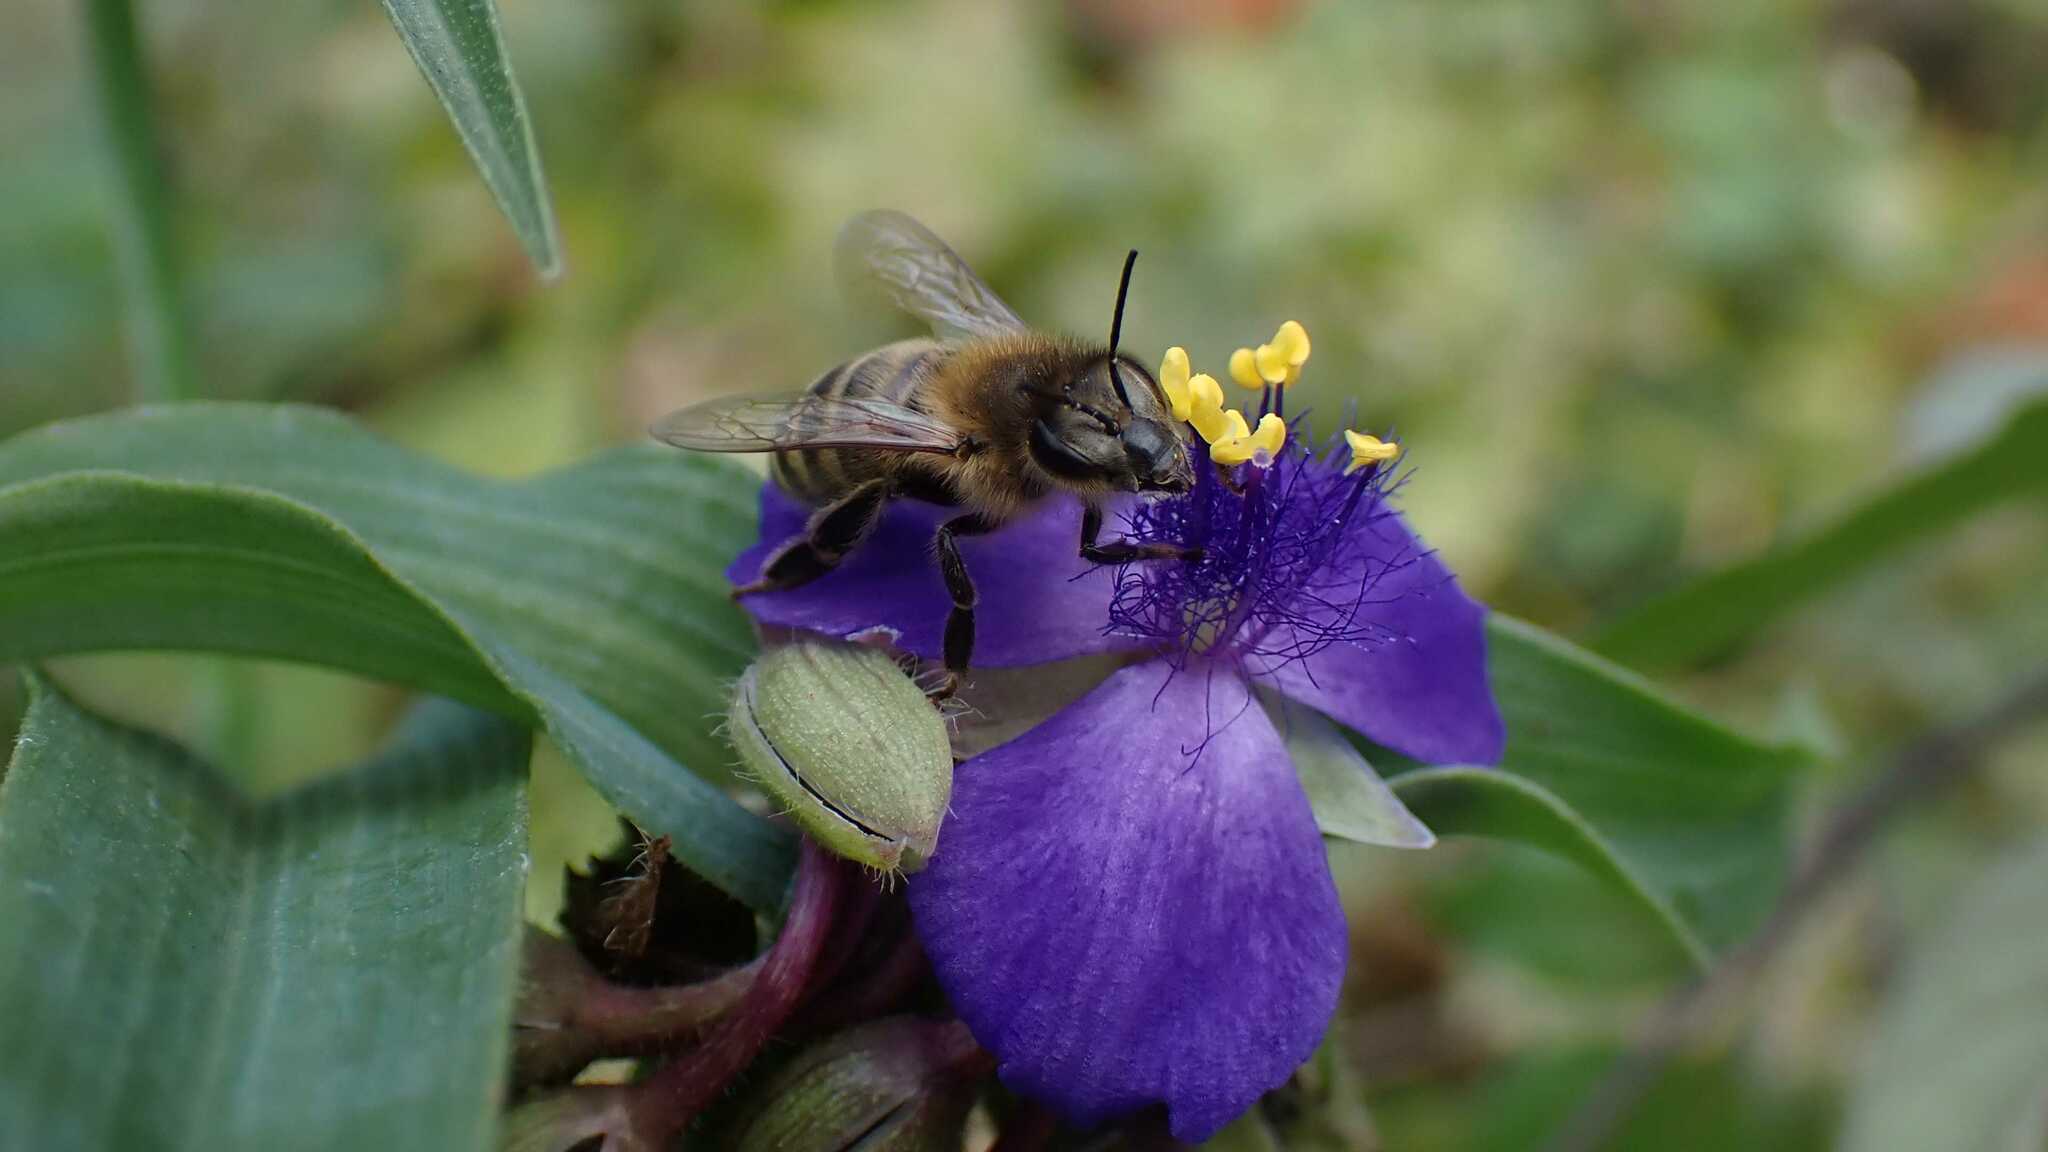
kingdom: Animalia
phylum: Arthropoda
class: Insecta
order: Hymenoptera
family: Apidae
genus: Apis
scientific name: Apis mellifera
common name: Honey bee
